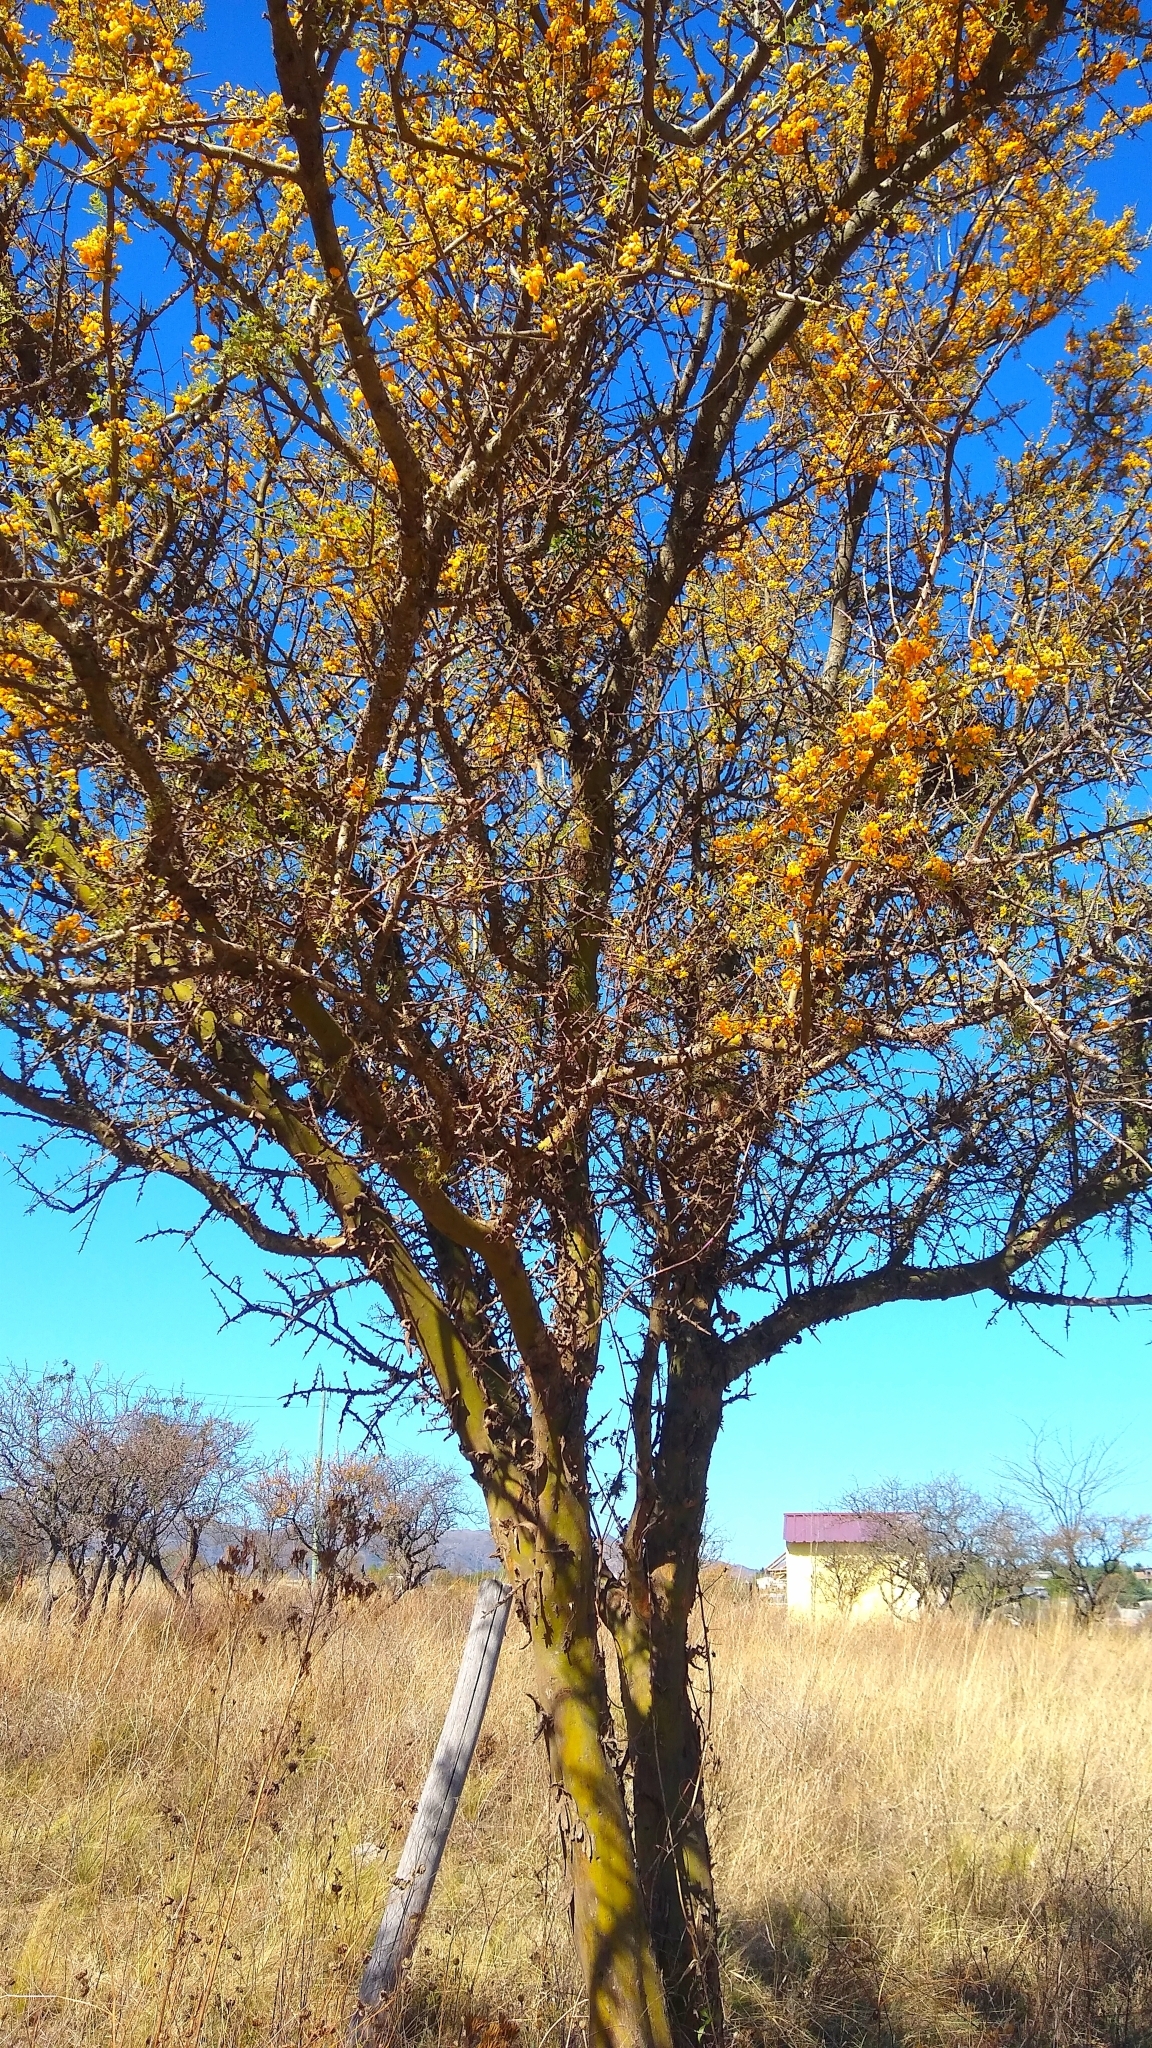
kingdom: Plantae
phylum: Tracheophyta
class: Magnoliopsida
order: Fabales
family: Fabaceae
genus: Geoffroea
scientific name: Geoffroea decorticans
